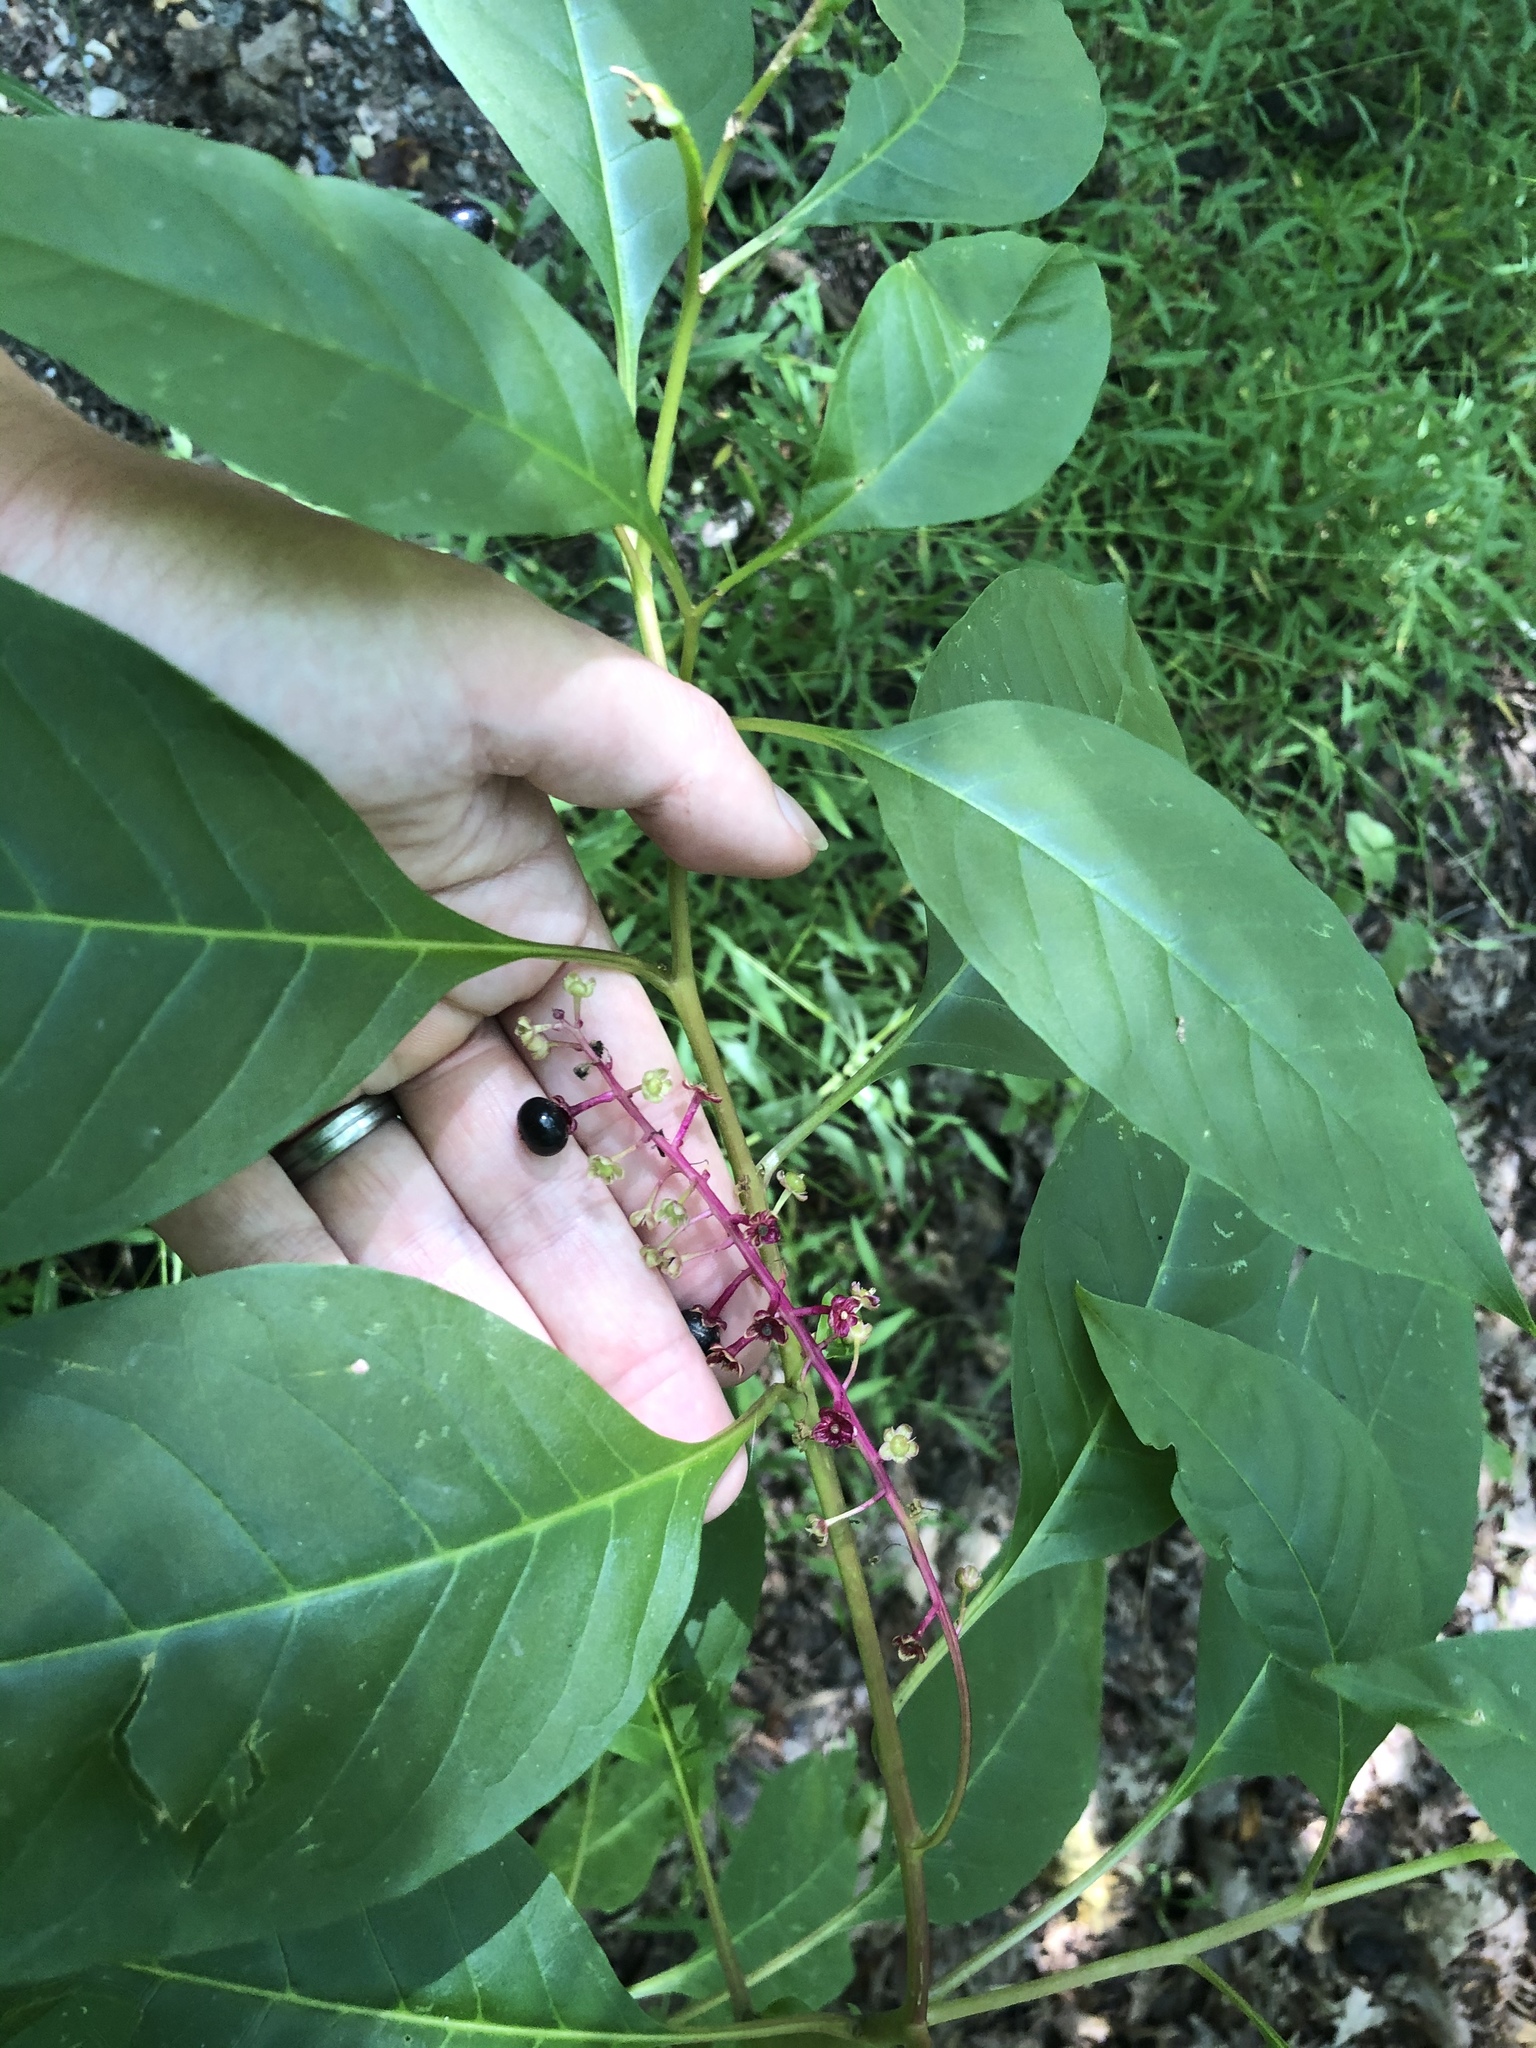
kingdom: Plantae
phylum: Tracheophyta
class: Magnoliopsida
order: Caryophyllales
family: Phytolaccaceae
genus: Phytolacca
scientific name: Phytolacca americana
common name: American pokeweed
